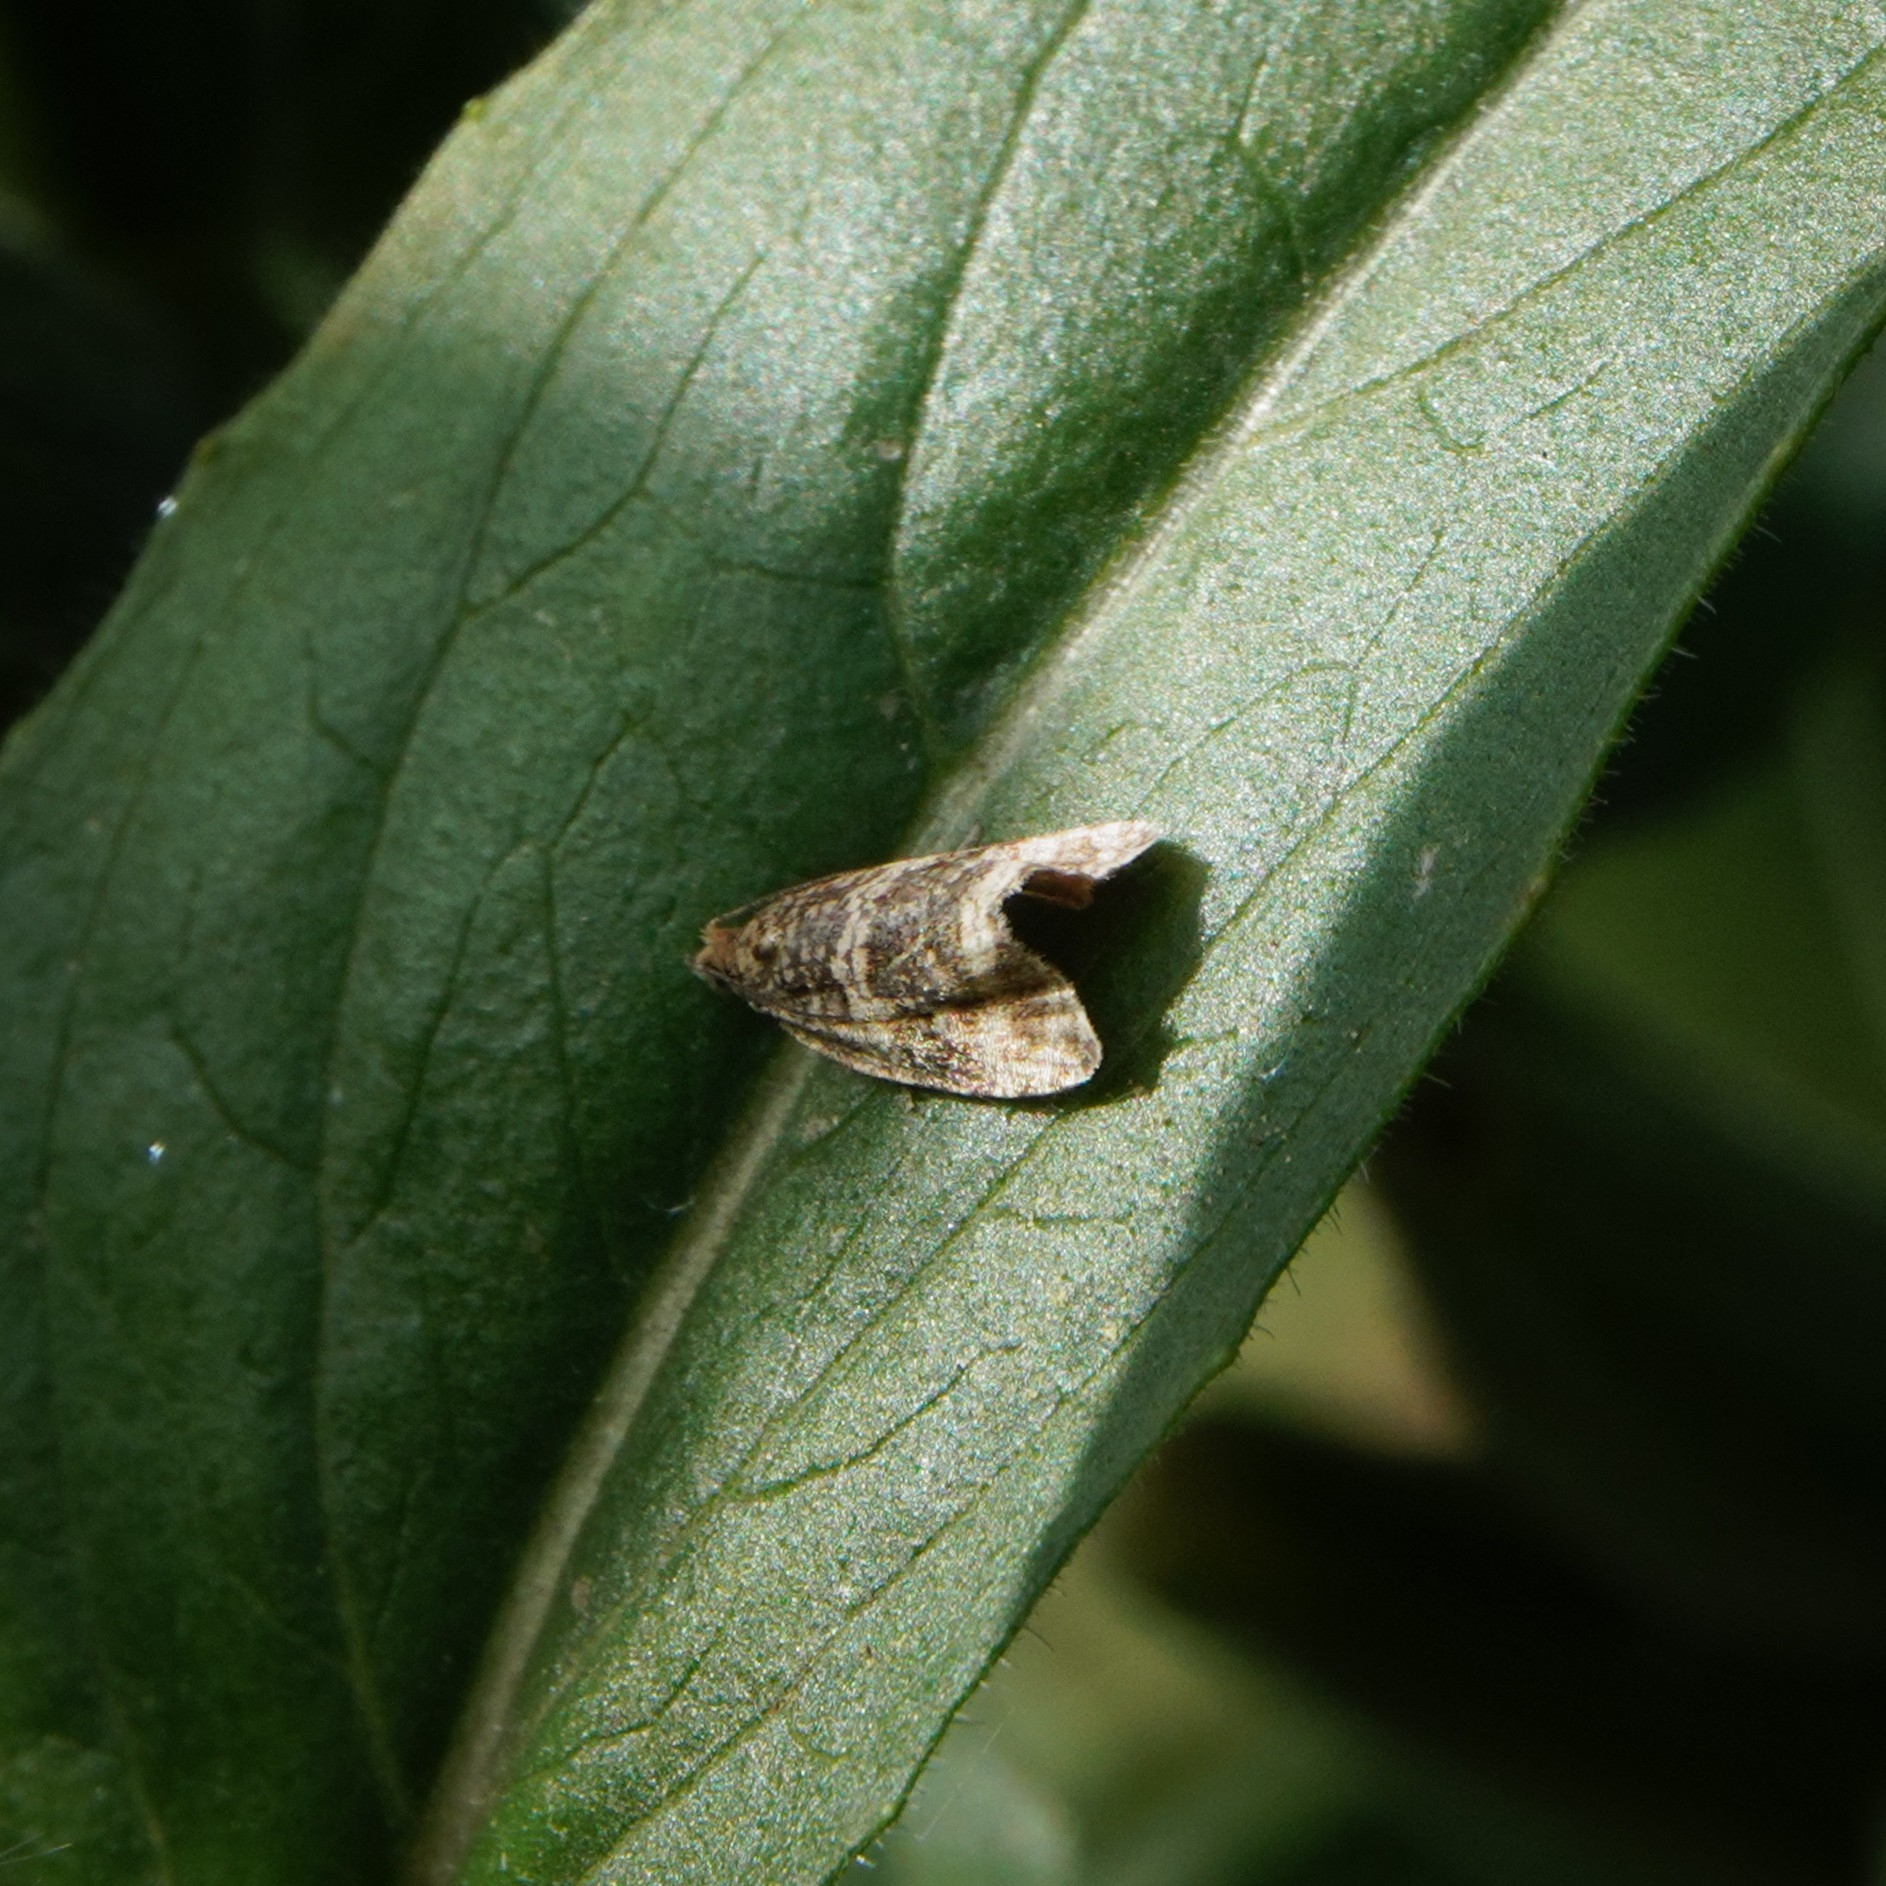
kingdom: Animalia
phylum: Arthropoda
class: Insecta
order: Lepidoptera
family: Tortricidae
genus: Syricoris
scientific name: Syricoris lacunana
